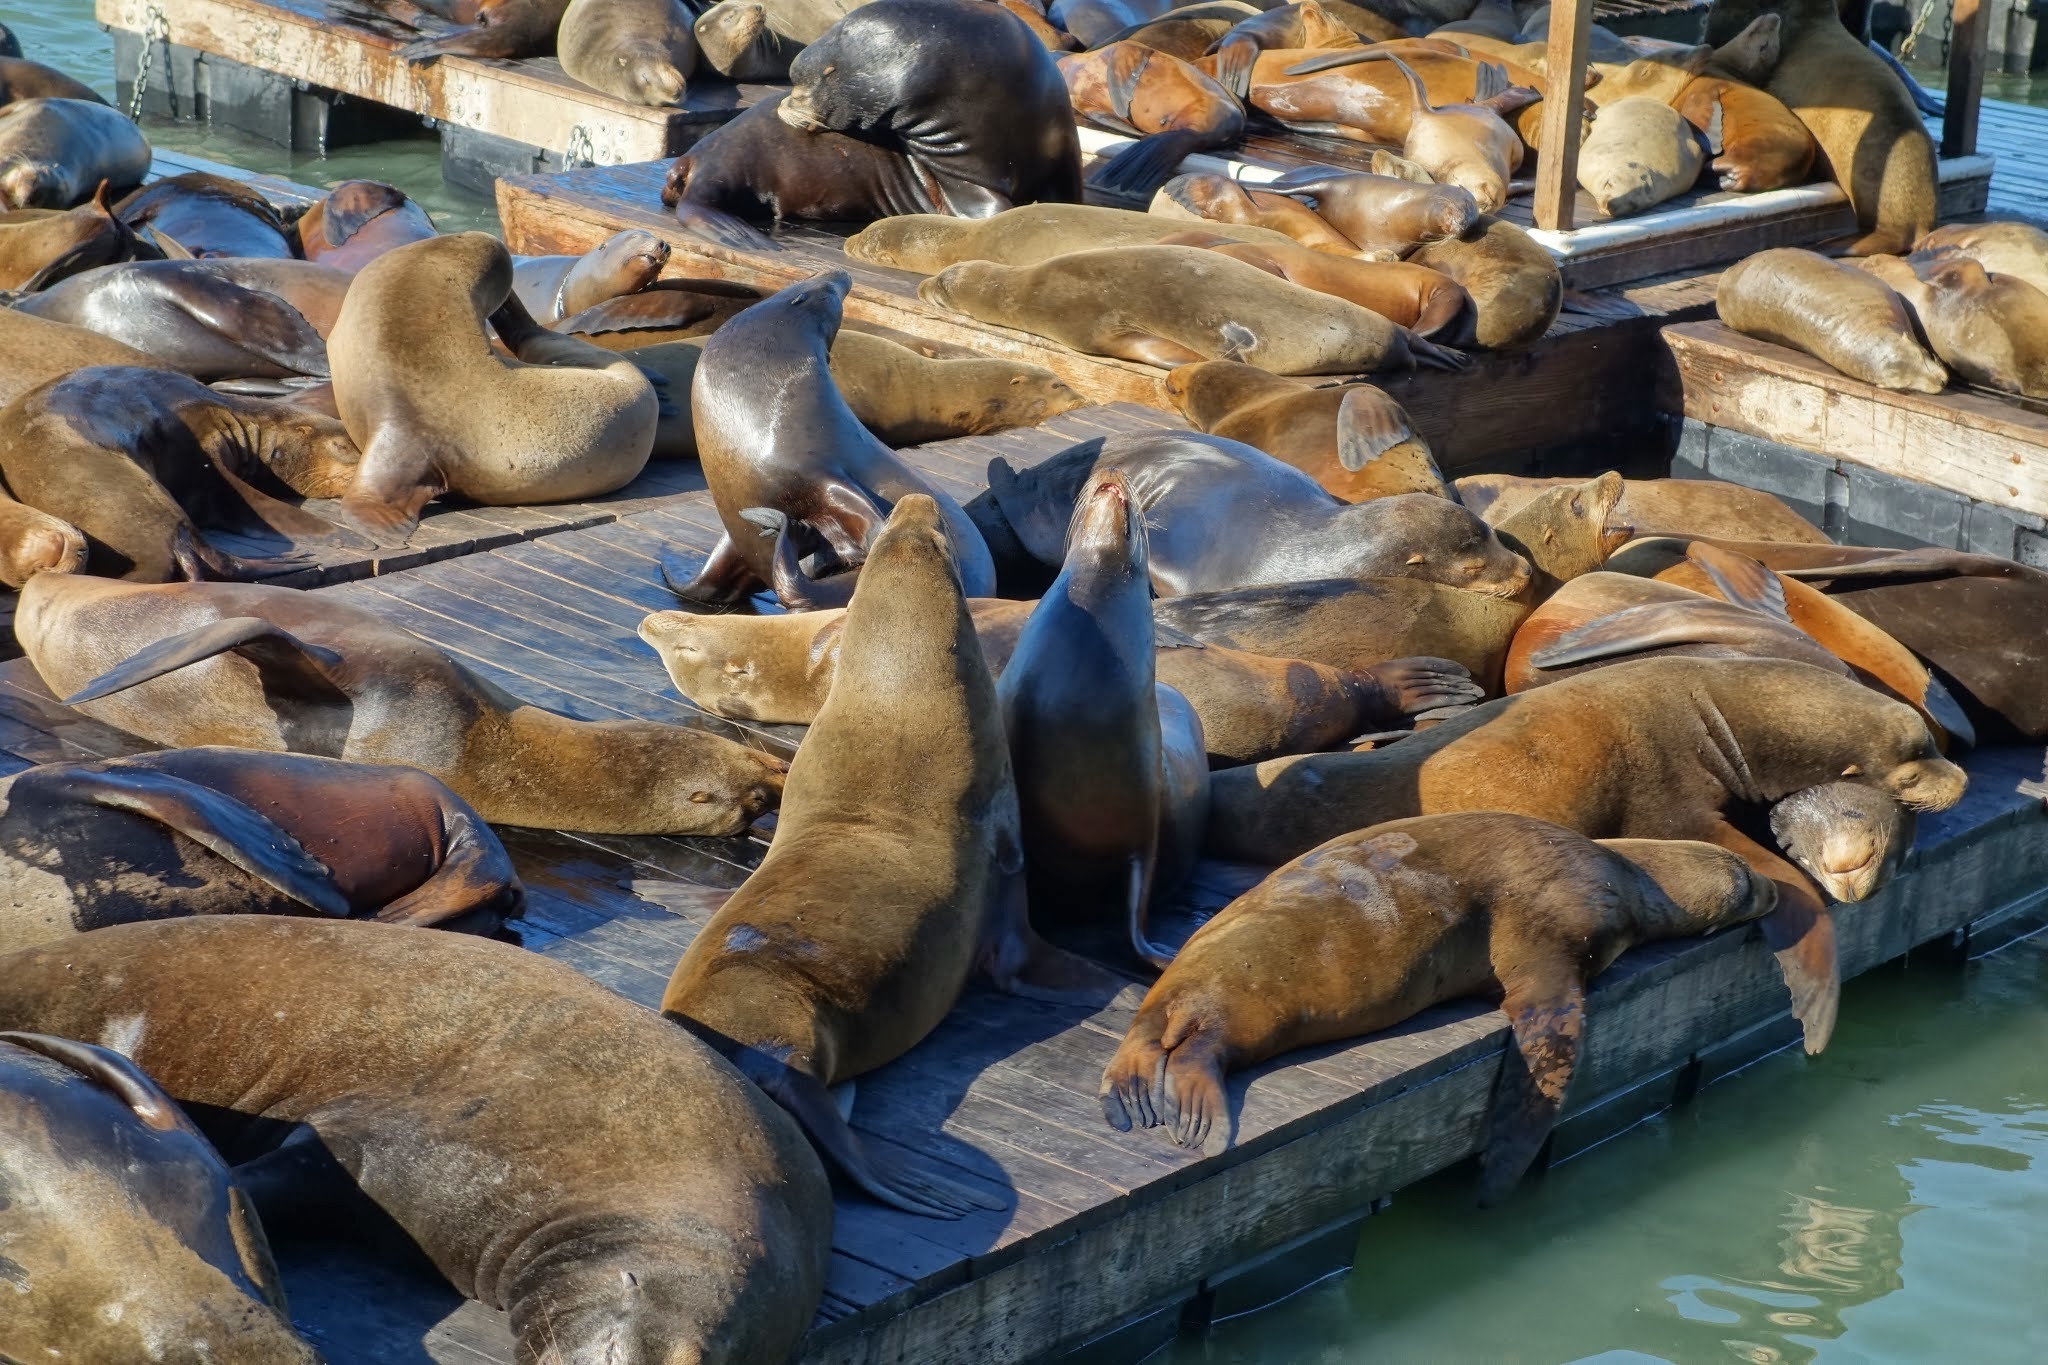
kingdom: Animalia
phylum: Chordata
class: Mammalia
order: Carnivora
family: Otariidae
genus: Zalophus
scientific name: Zalophus californianus
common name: California sea lion
